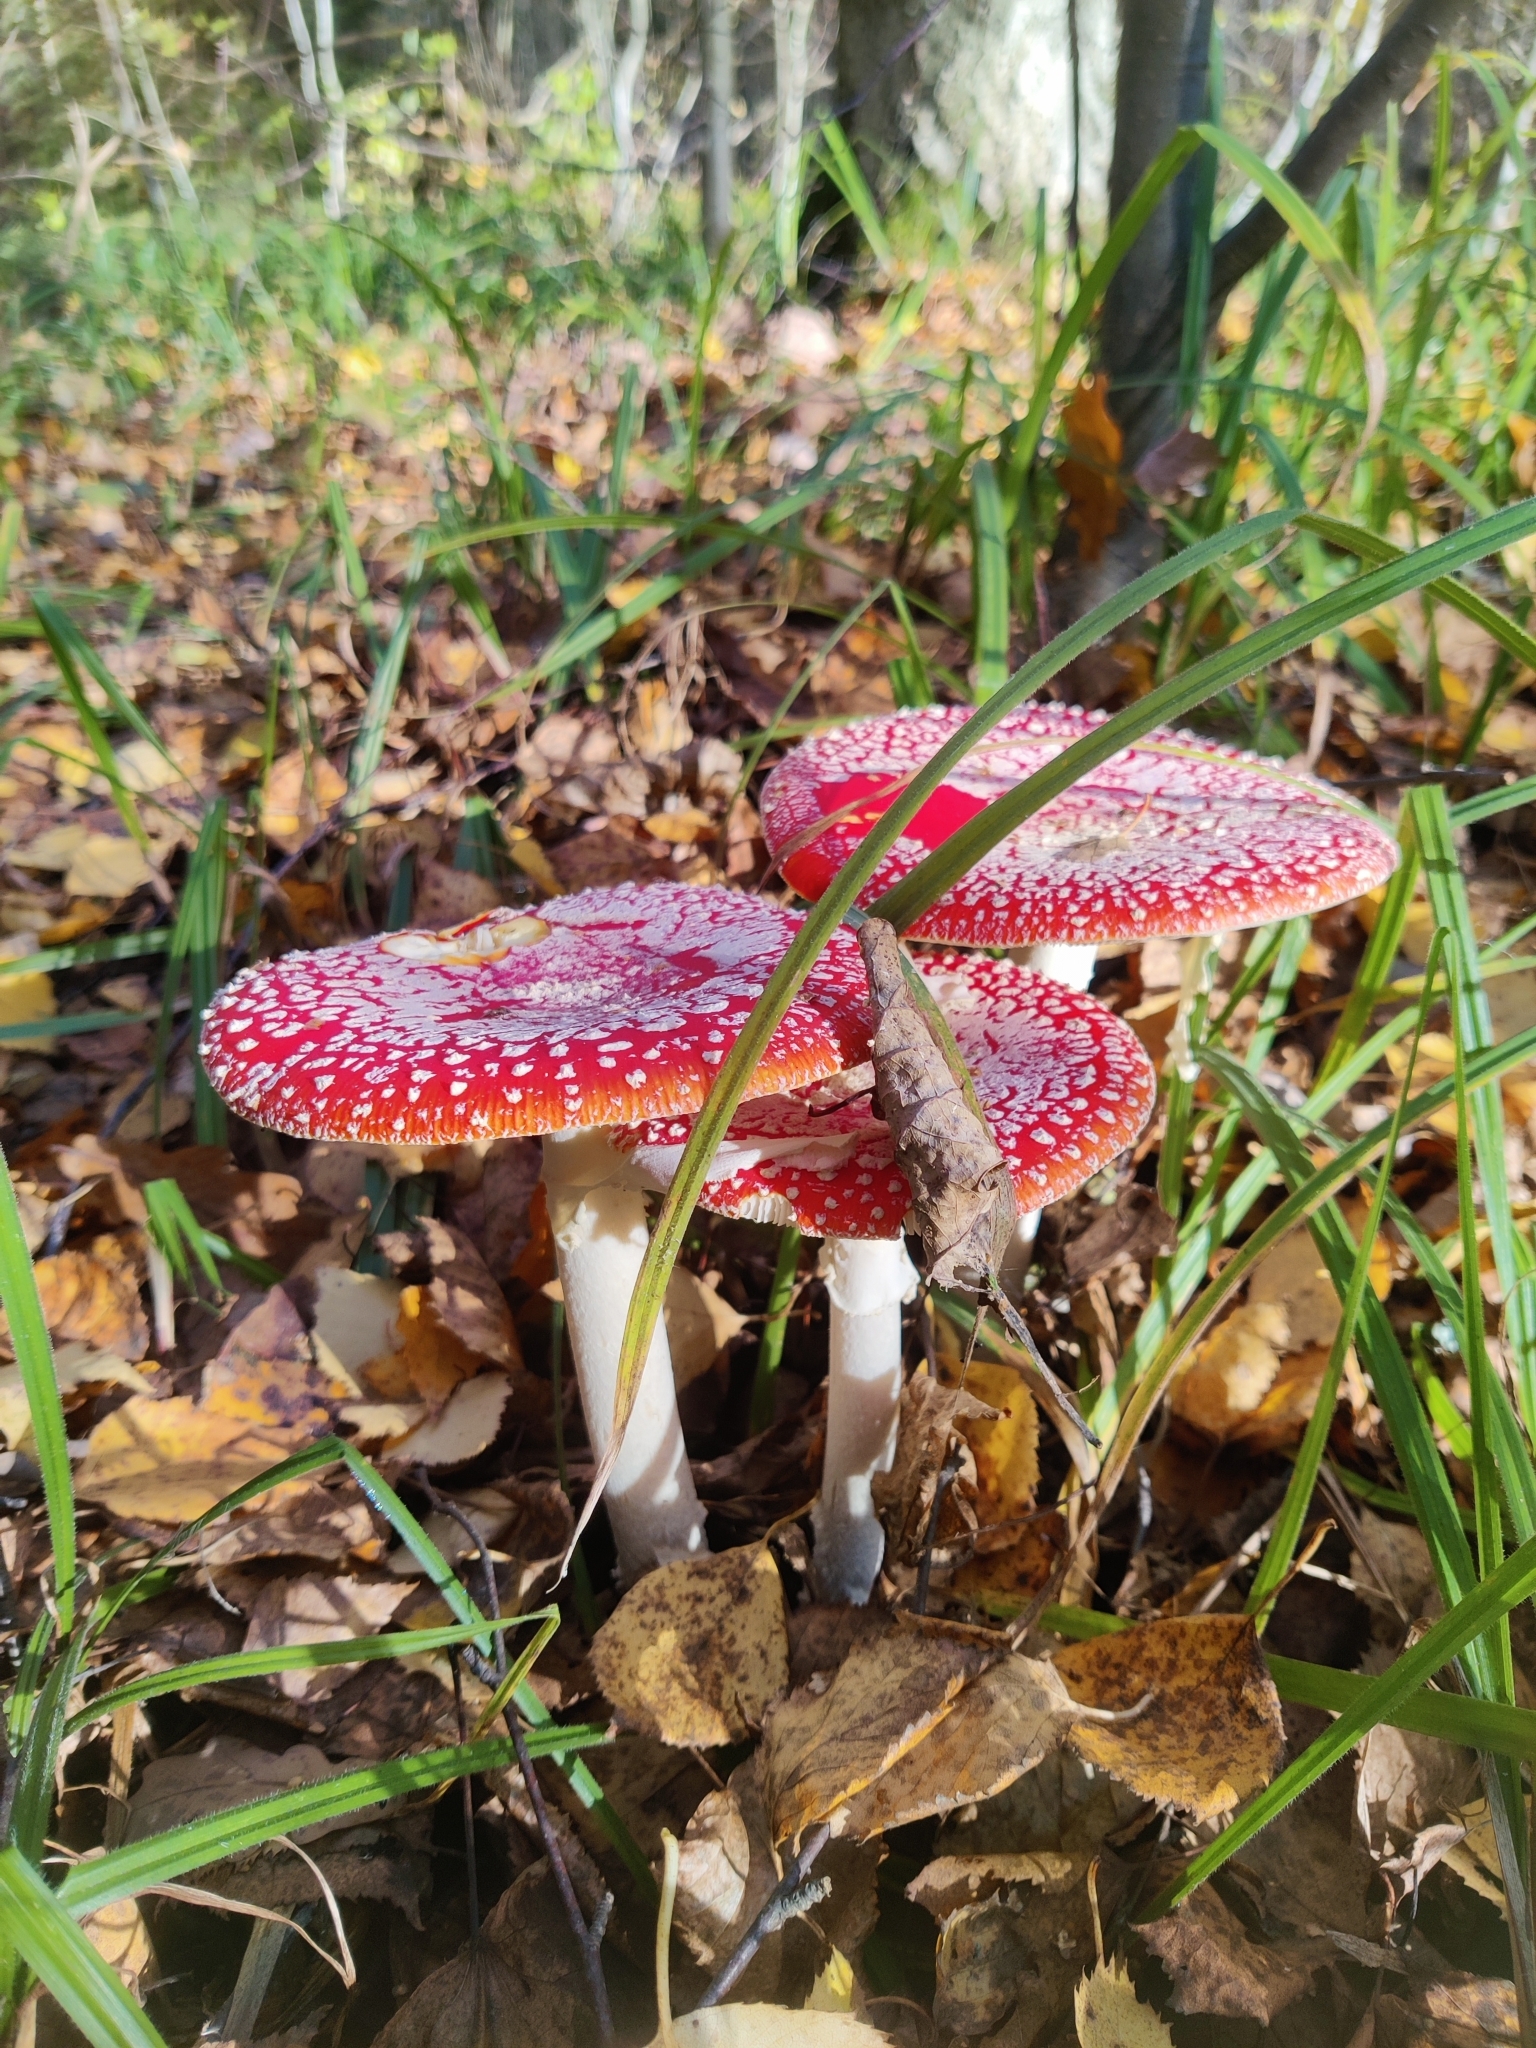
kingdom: Fungi
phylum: Basidiomycota
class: Agaricomycetes
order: Agaricales
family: Amanitaceae
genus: Amanita
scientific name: Amanita muscaria
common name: Fly agaric
